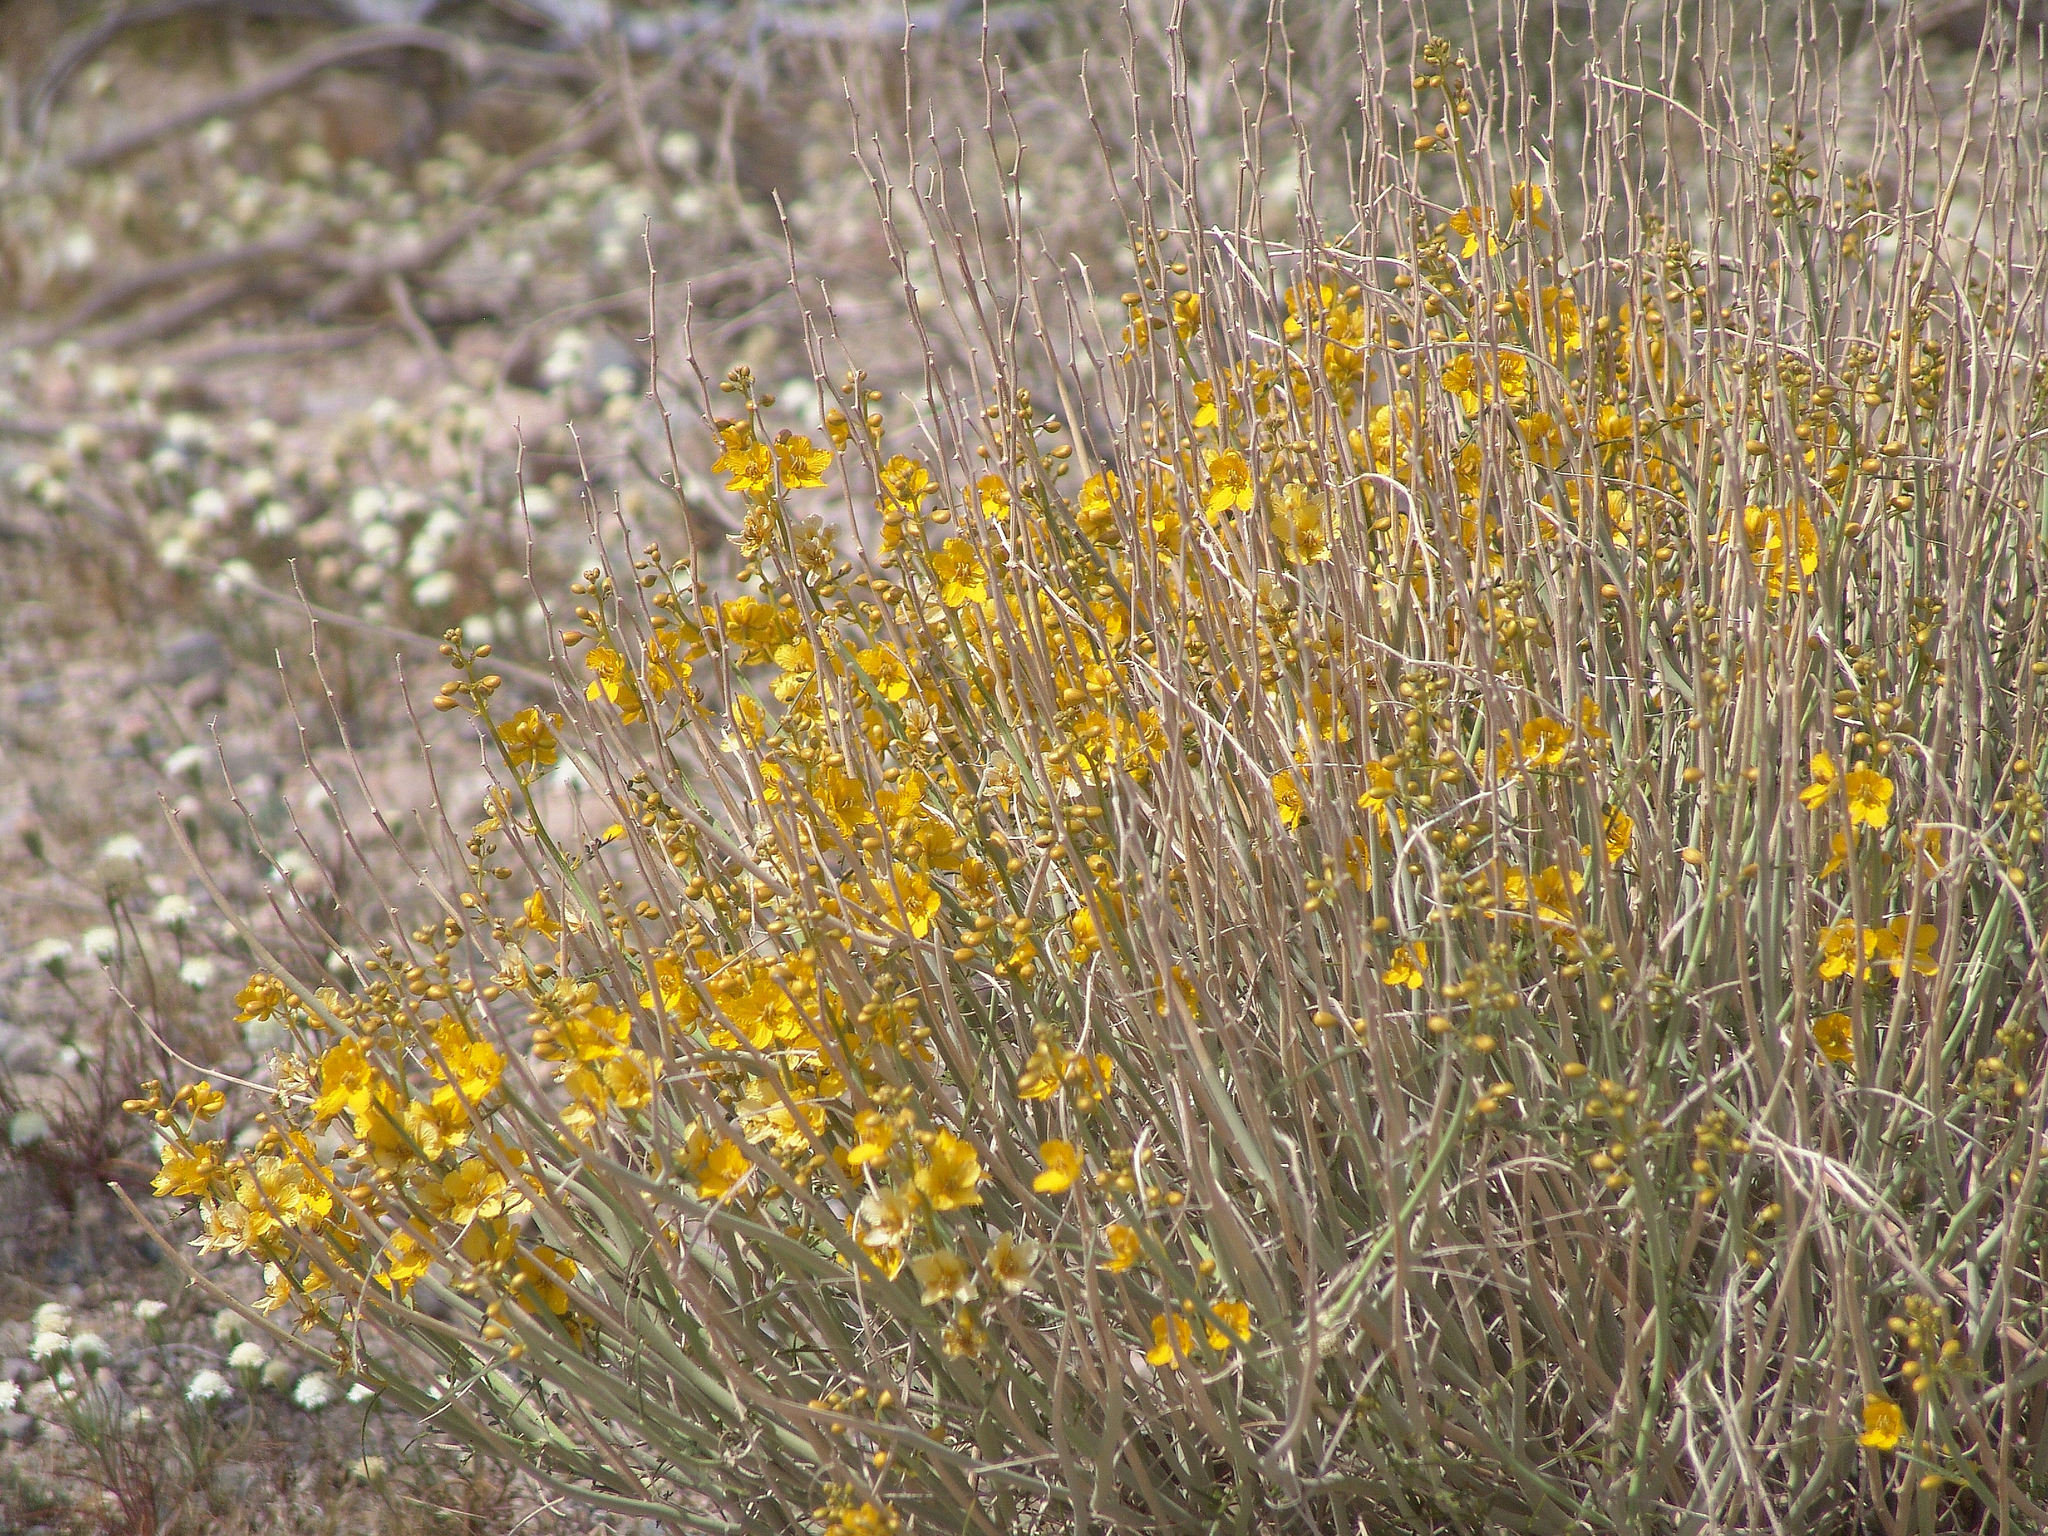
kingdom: Plantae
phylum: Tracheophyta
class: Magnoliopsida
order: Fabales
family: Fabaceae
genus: Senna
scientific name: Senna armata
